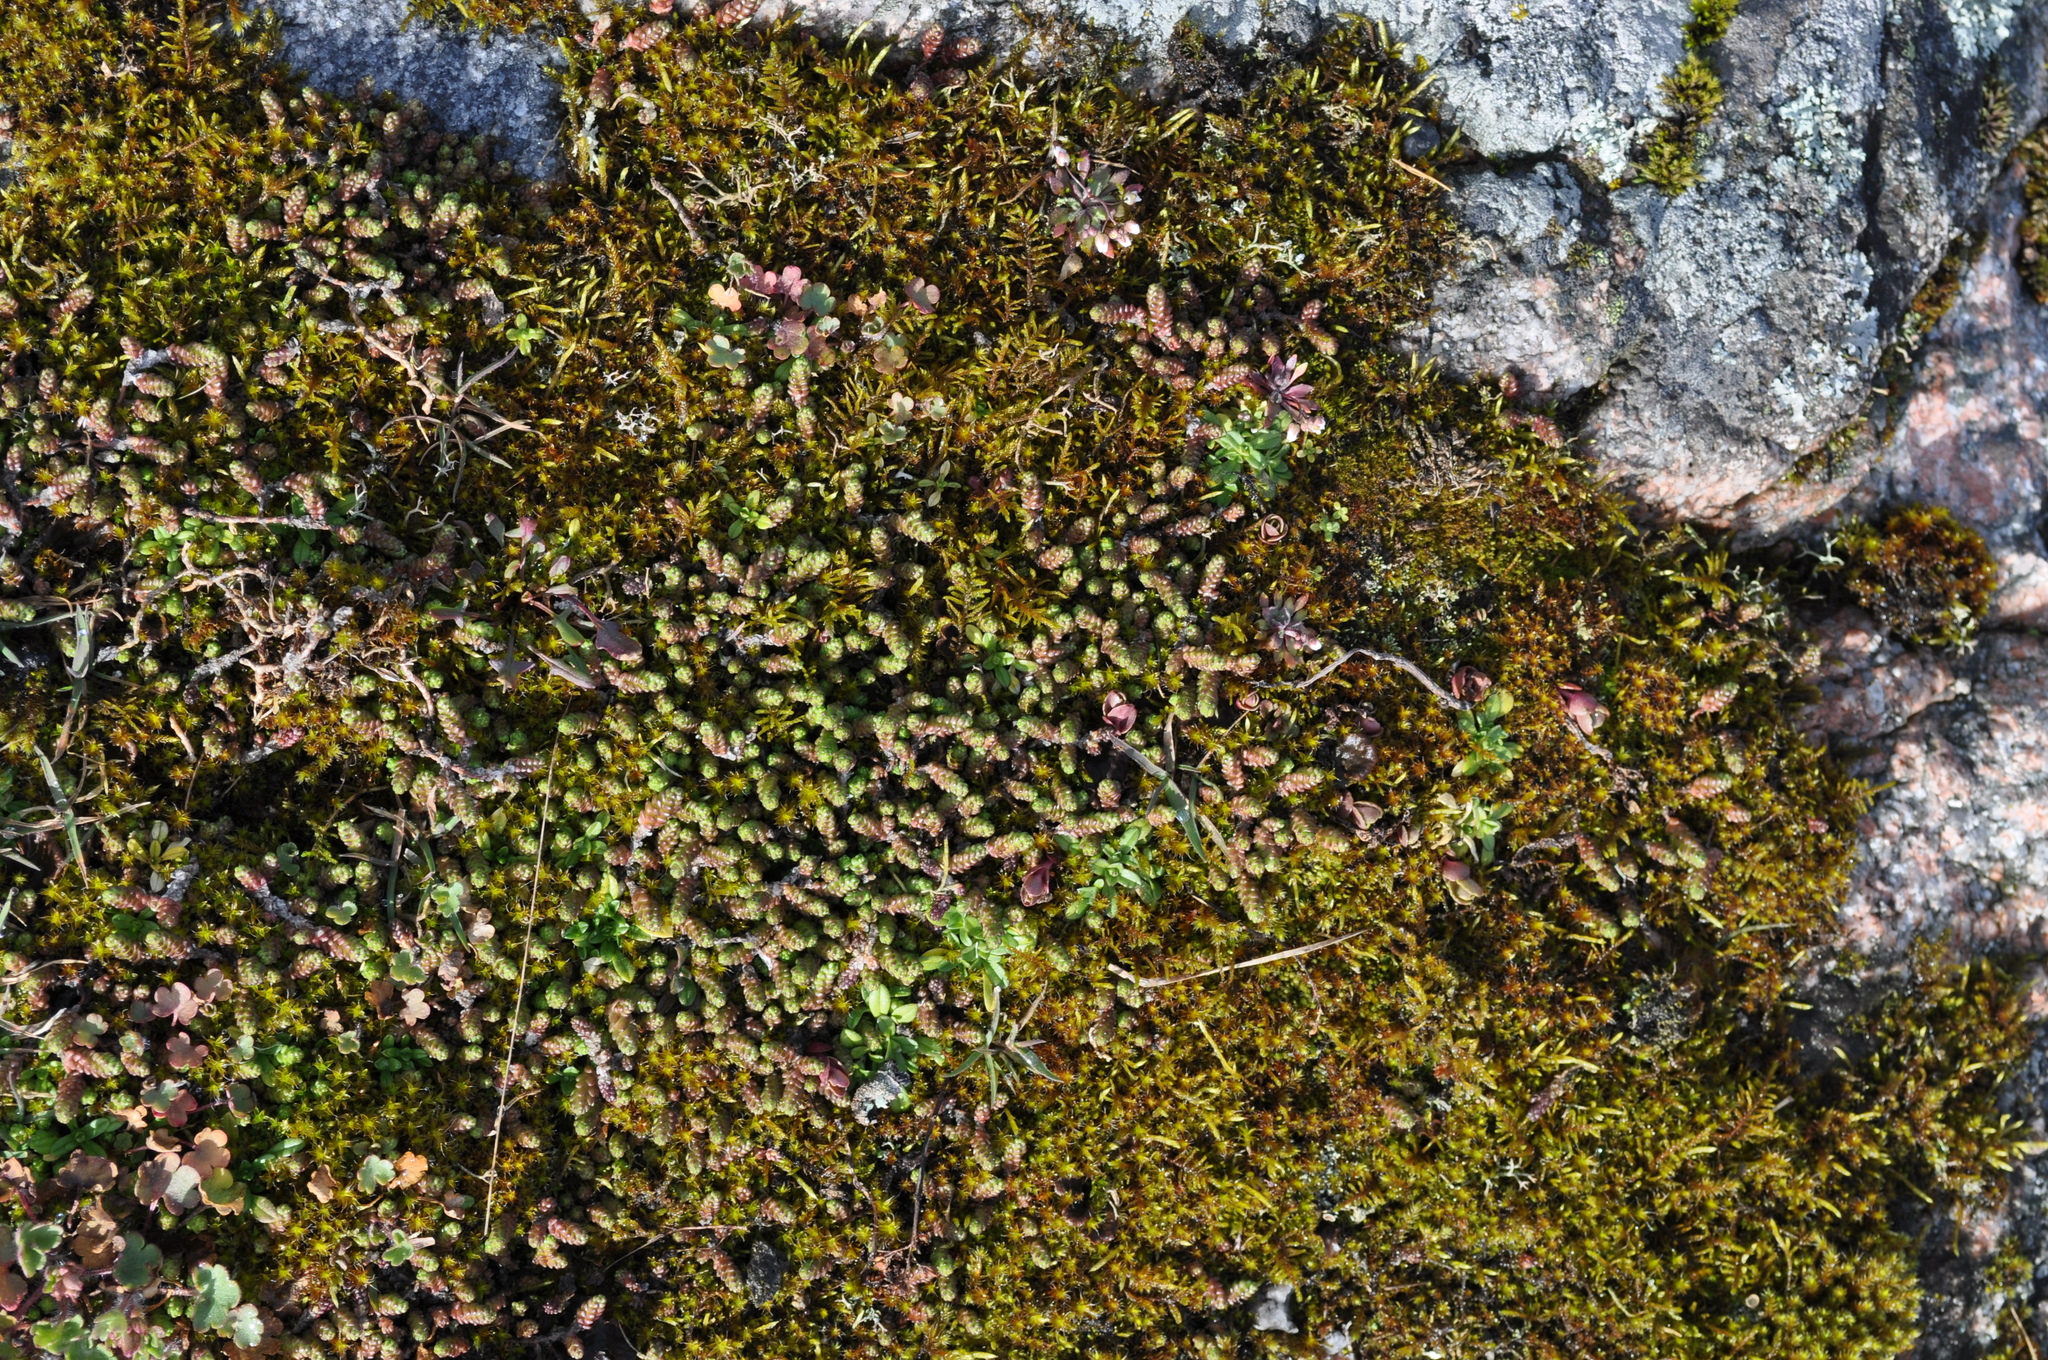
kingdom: Plantae
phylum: Tracheophyta
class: Magnoliopsida
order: Saxifragales
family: Crassulaceae
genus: Sedum
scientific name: Sedum acre
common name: Biting stonecrop
